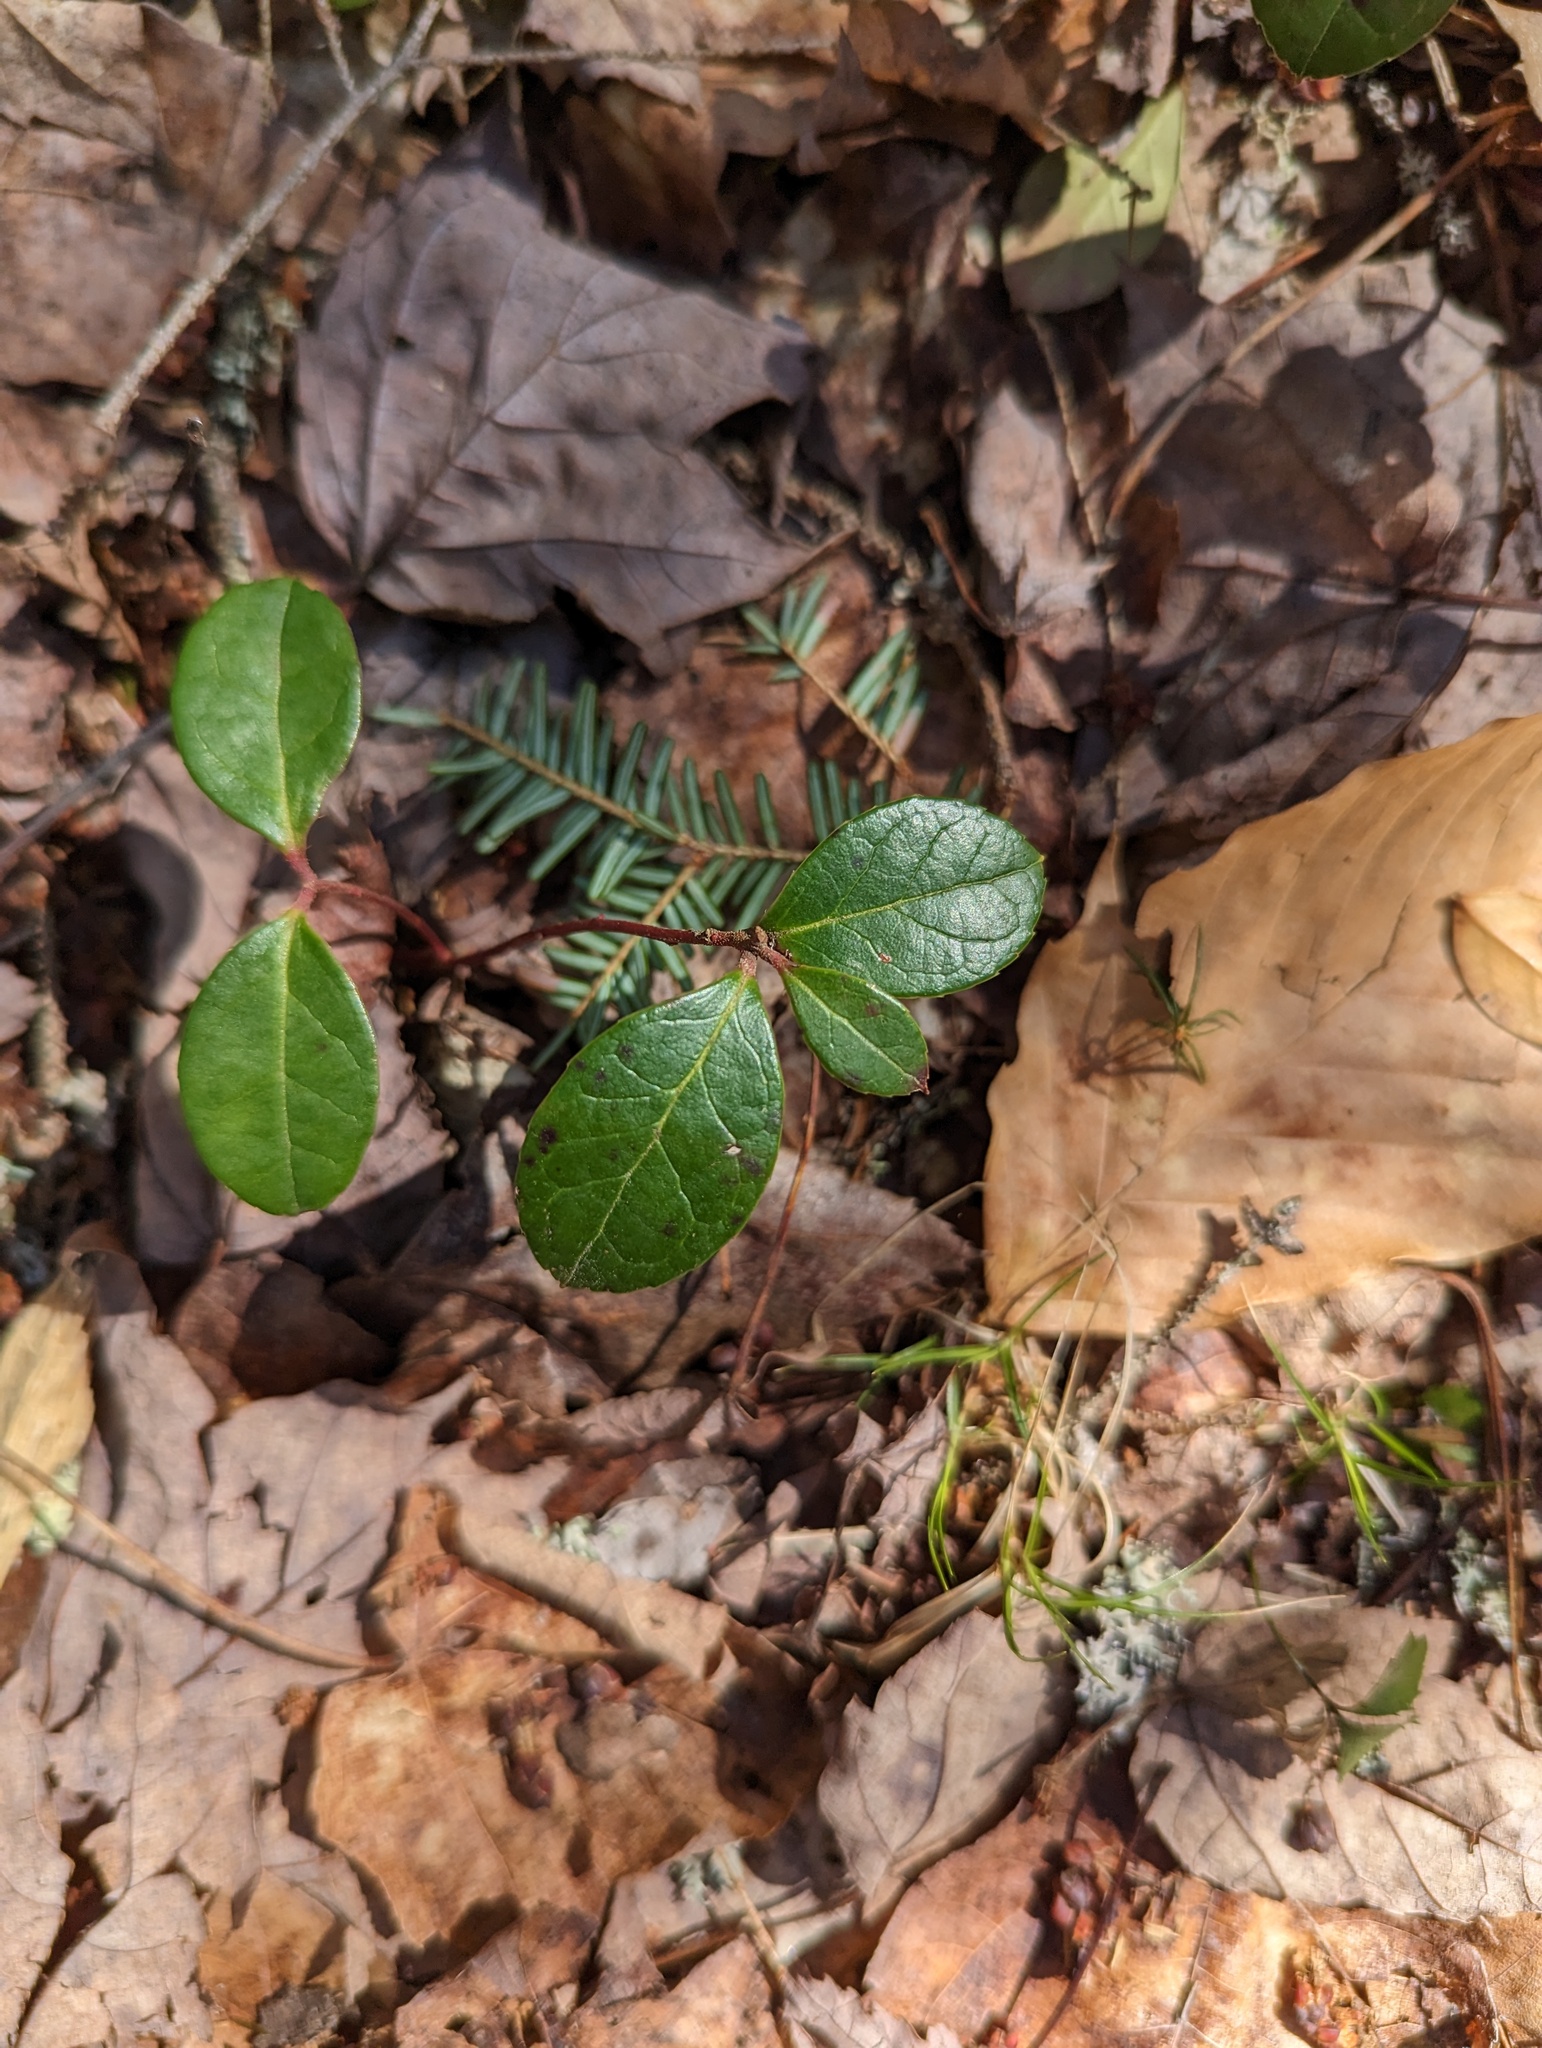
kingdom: Plantae
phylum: Tracheophyta
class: Magnoliopsida
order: Ericales
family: Ericaceae
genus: Gaultheria
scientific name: Gaultheria procumbens
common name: Checkerberry
